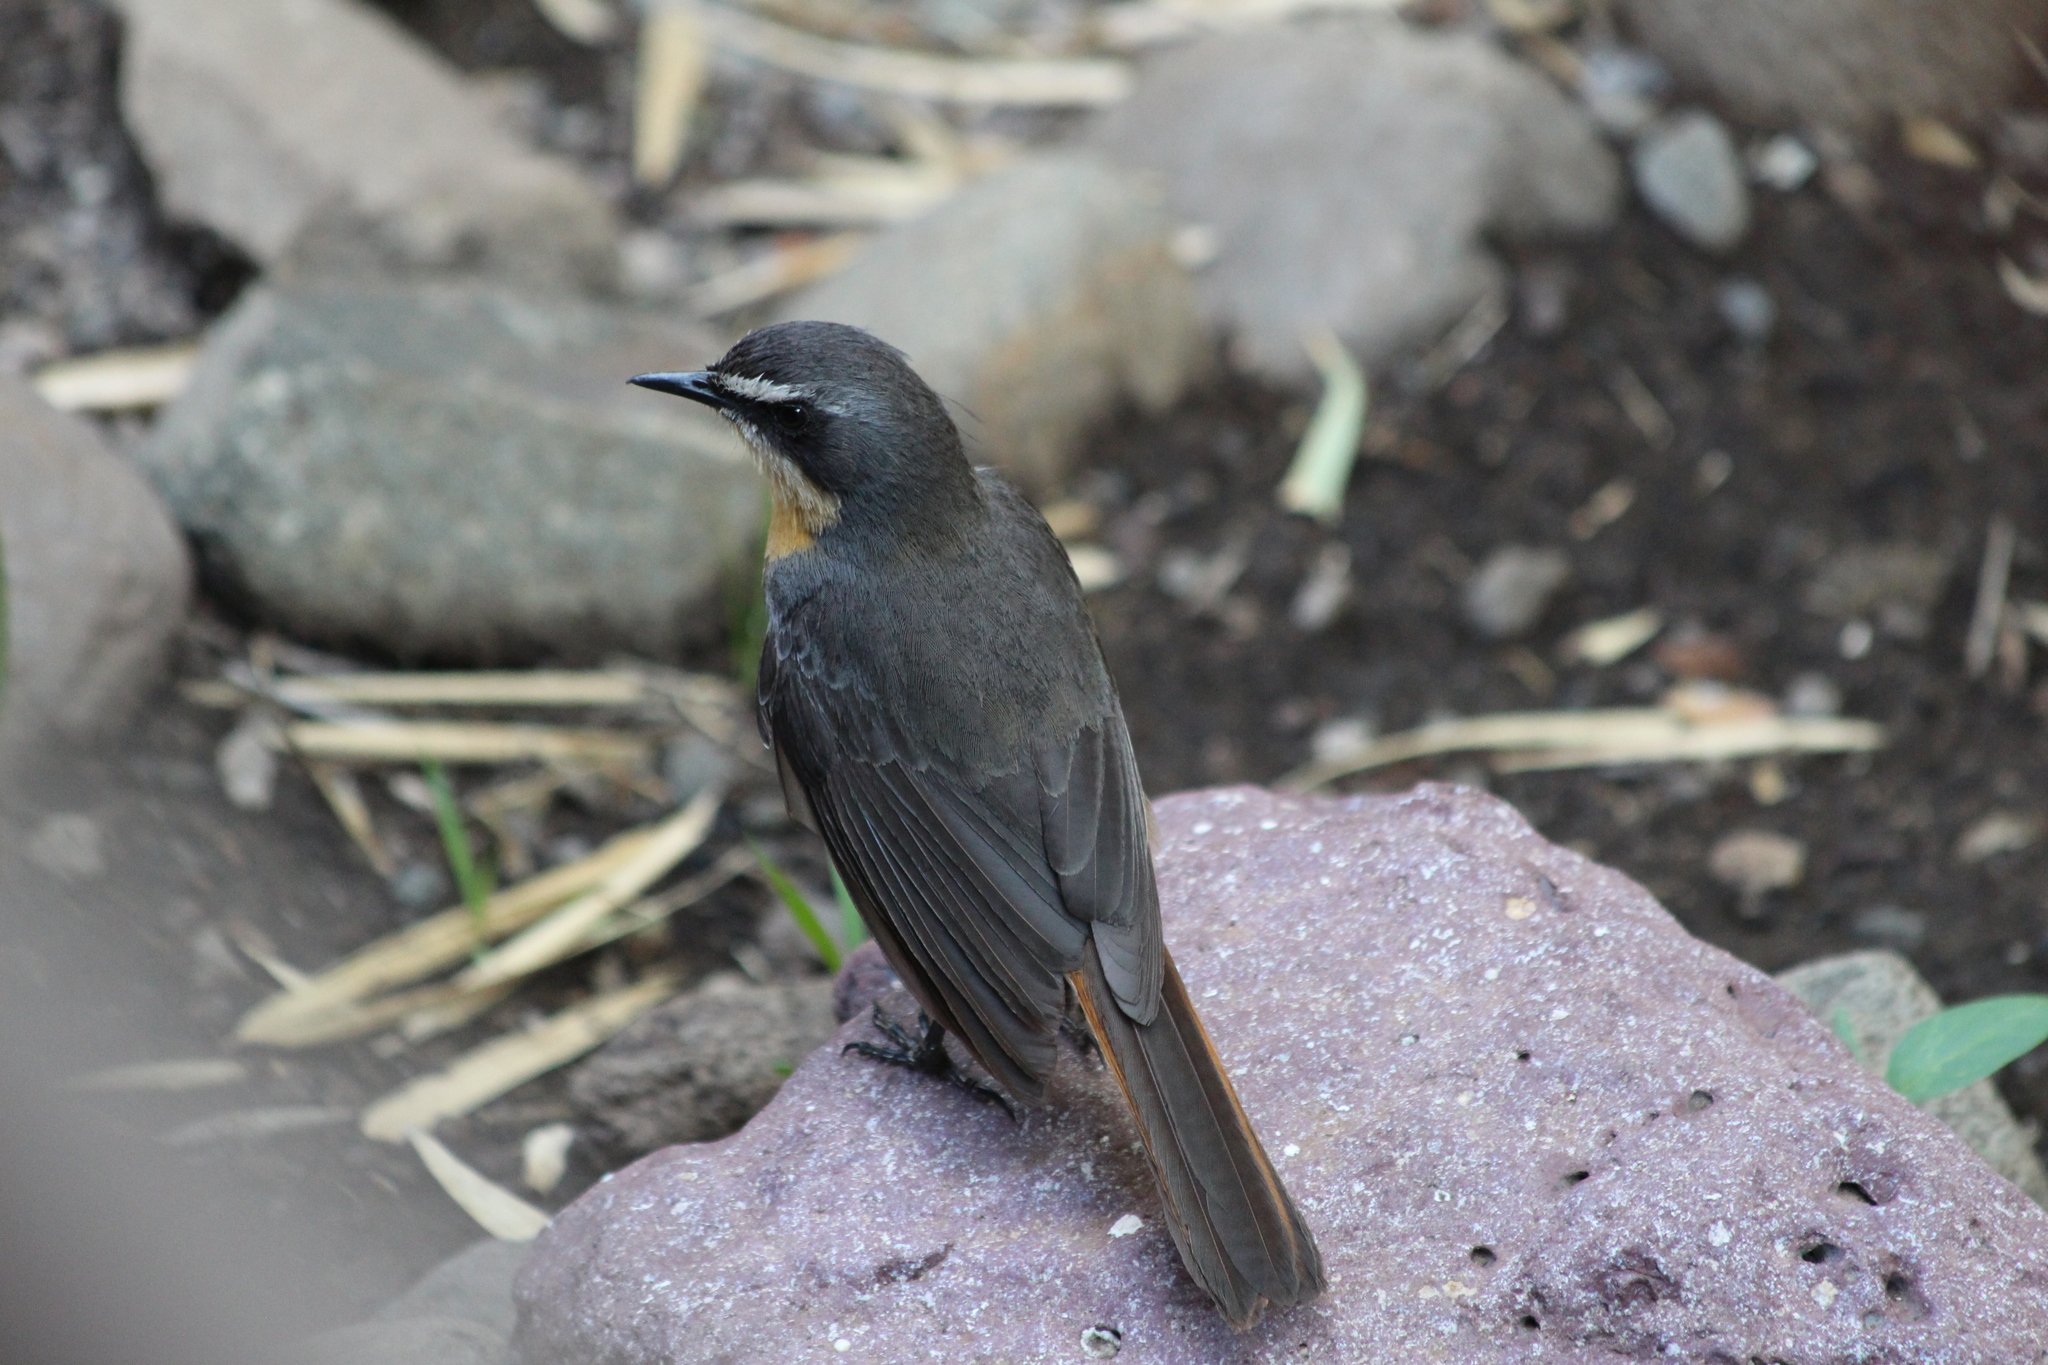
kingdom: Animalia
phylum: Chordata
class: Aves
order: Passeriformes
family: Muscicapidae
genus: Cossypha
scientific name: Cossypha caffra
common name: Cape robin-chat
